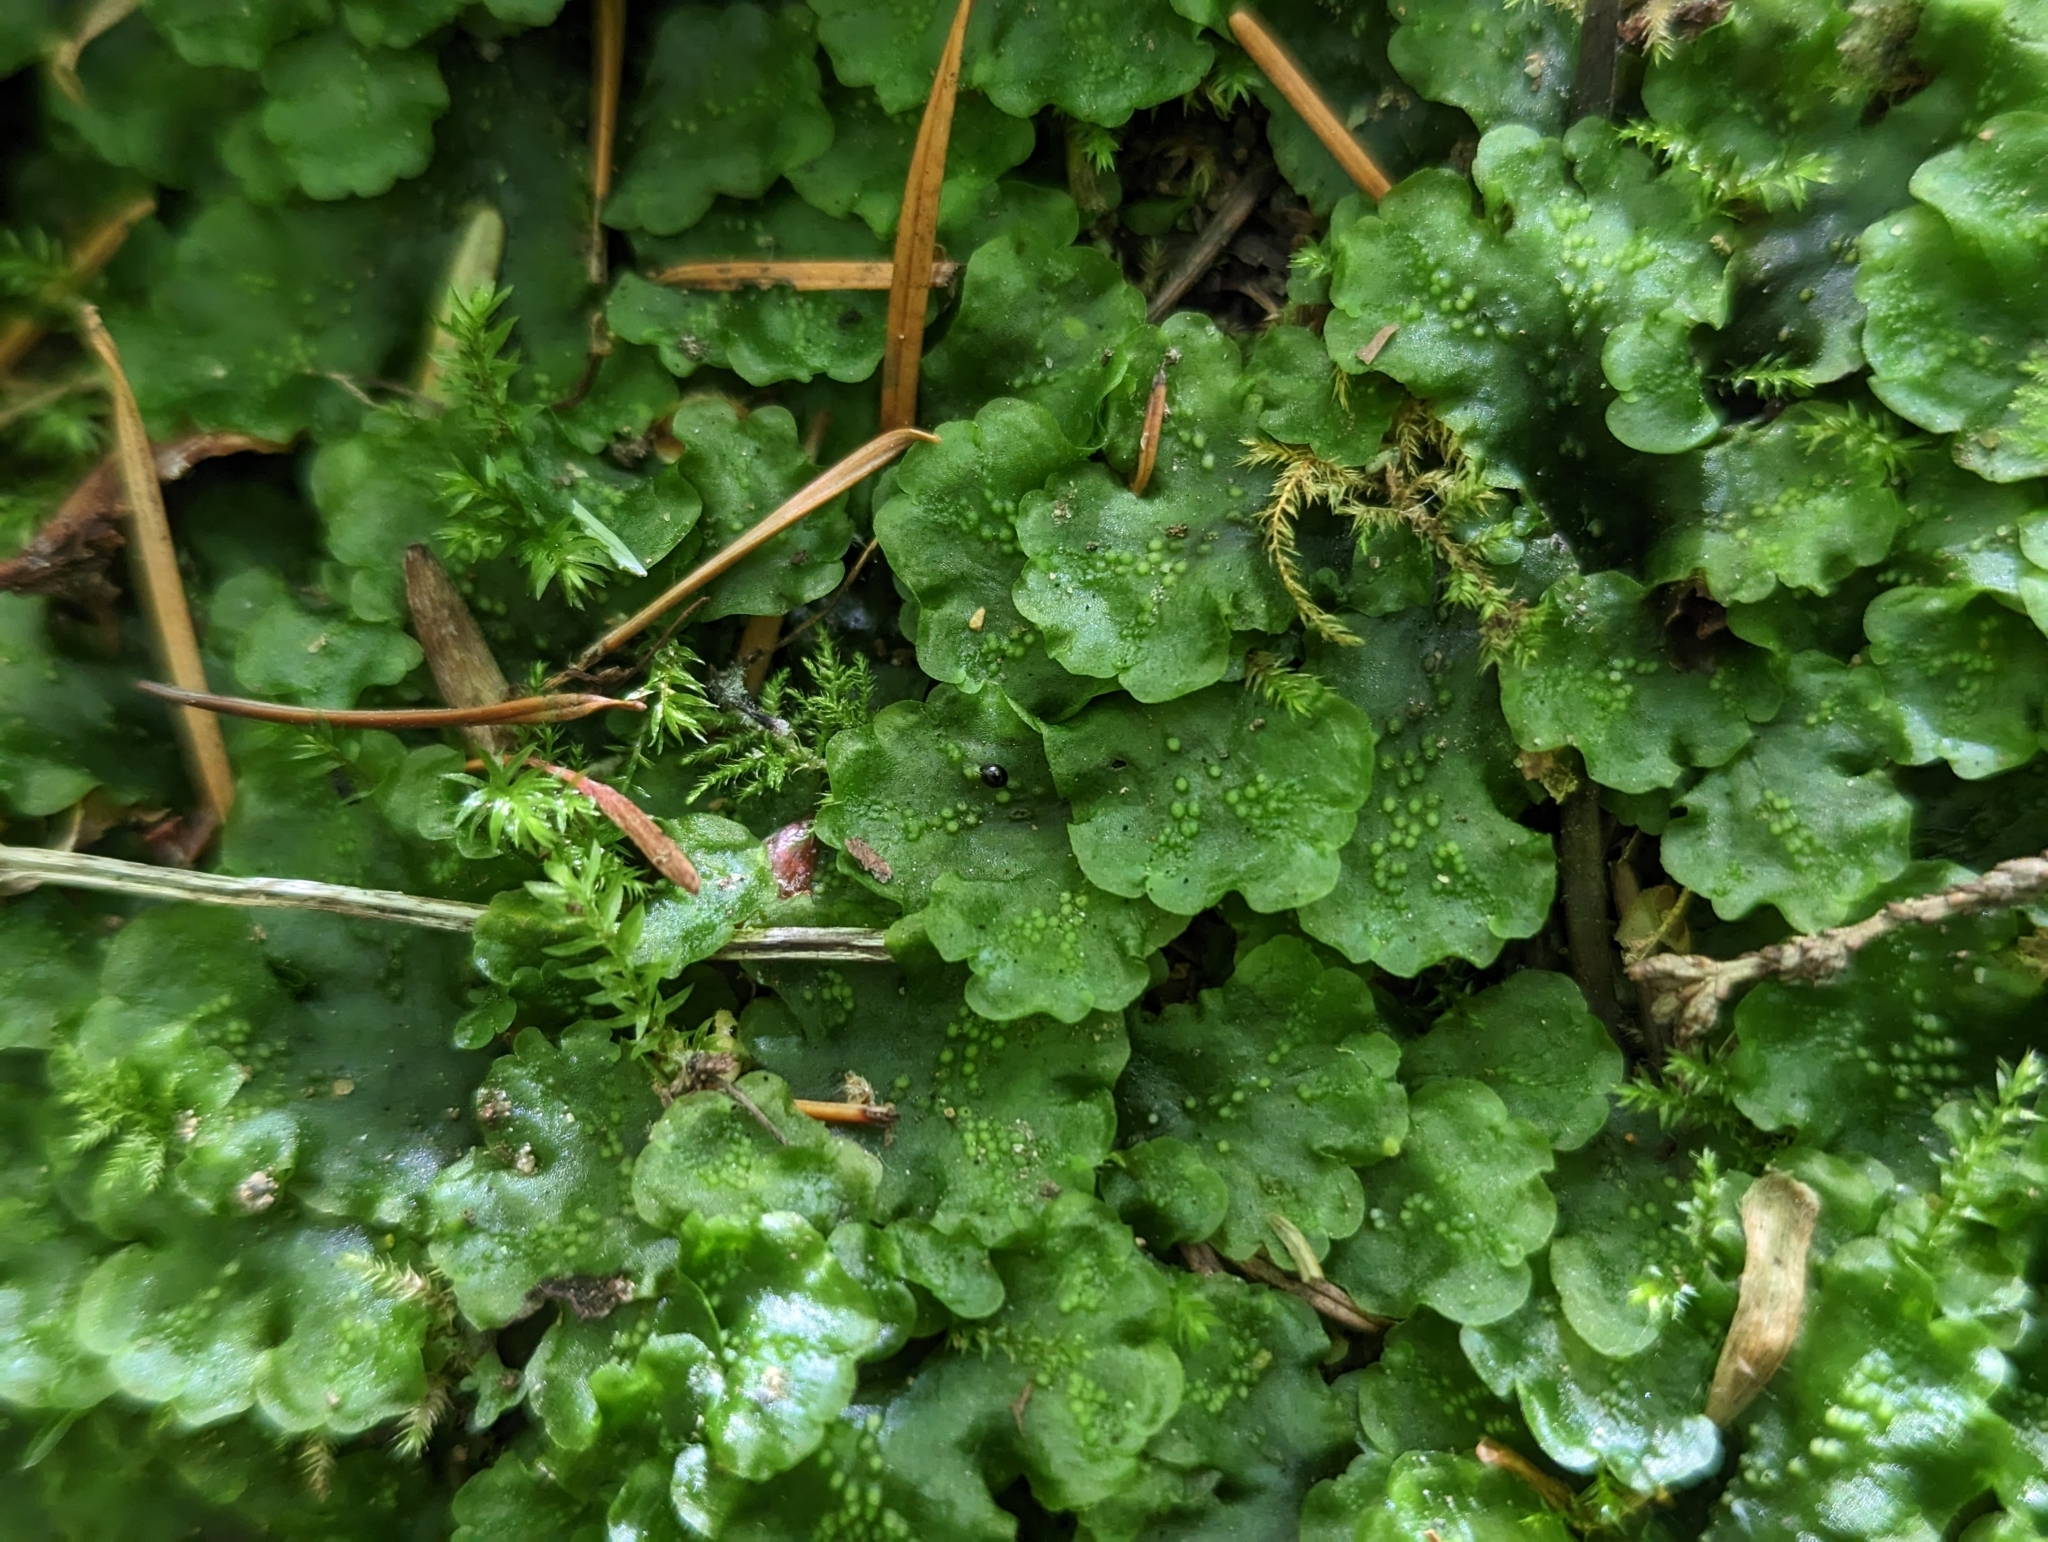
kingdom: Plantae
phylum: Marchantiophyta
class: Jungermanniopsida
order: Pelliales
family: Pelliaceae
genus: Pellia
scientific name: Pellia neesiana
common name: Nees  pellia
